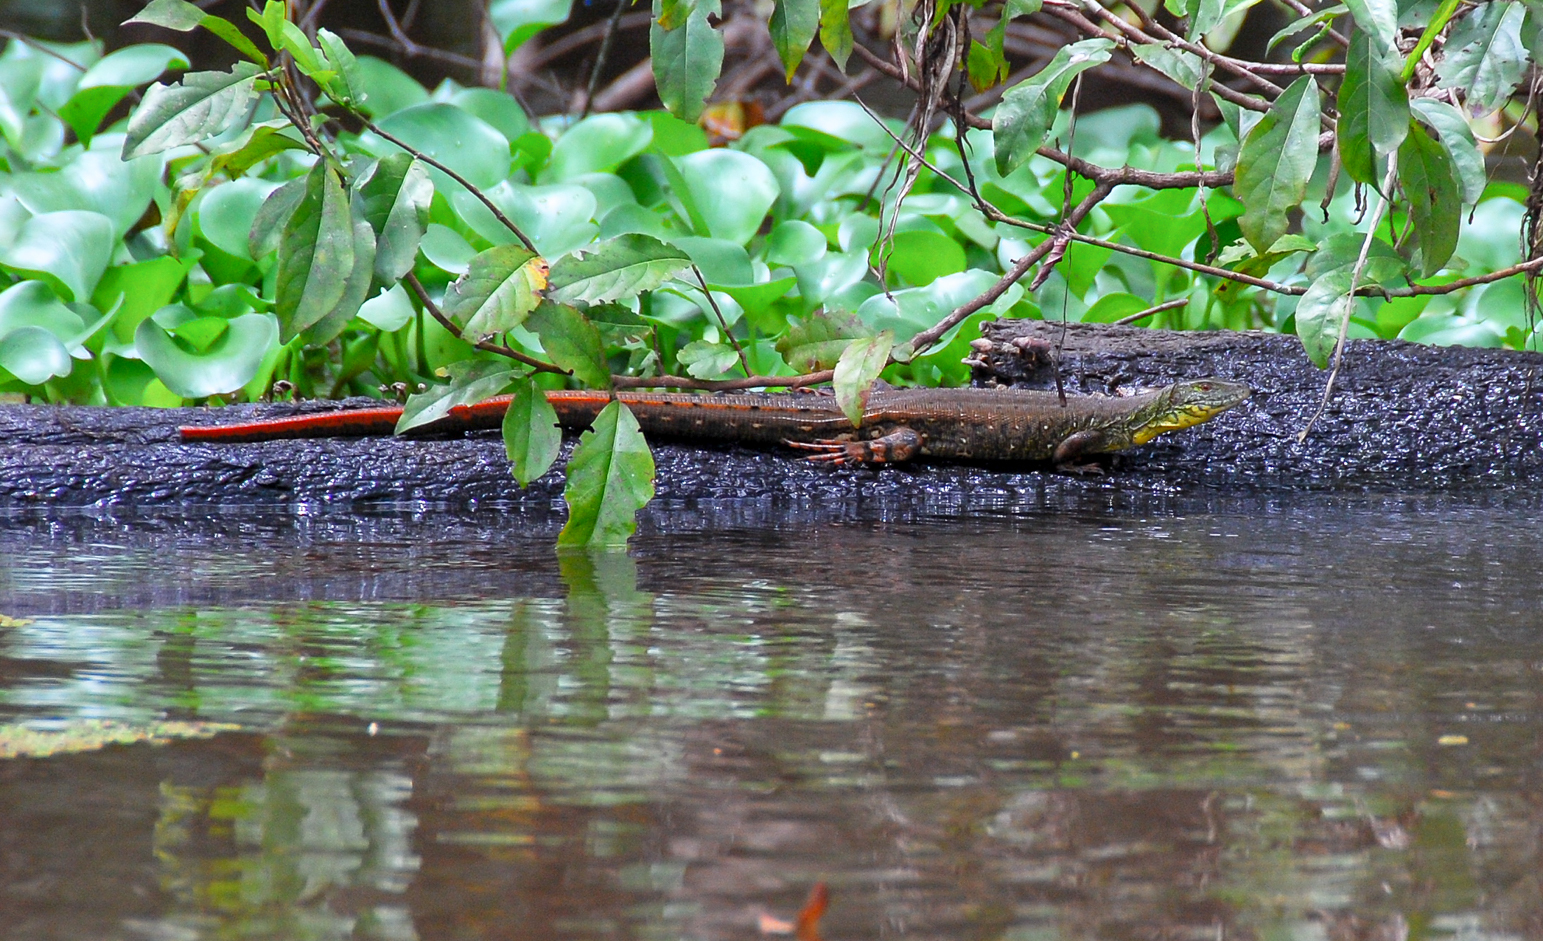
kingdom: Animalia
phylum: Chordata
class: Squamata
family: Teiidae
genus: Crocodilurus
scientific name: Crocodilurus amazonicus
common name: Crocodile tegu
